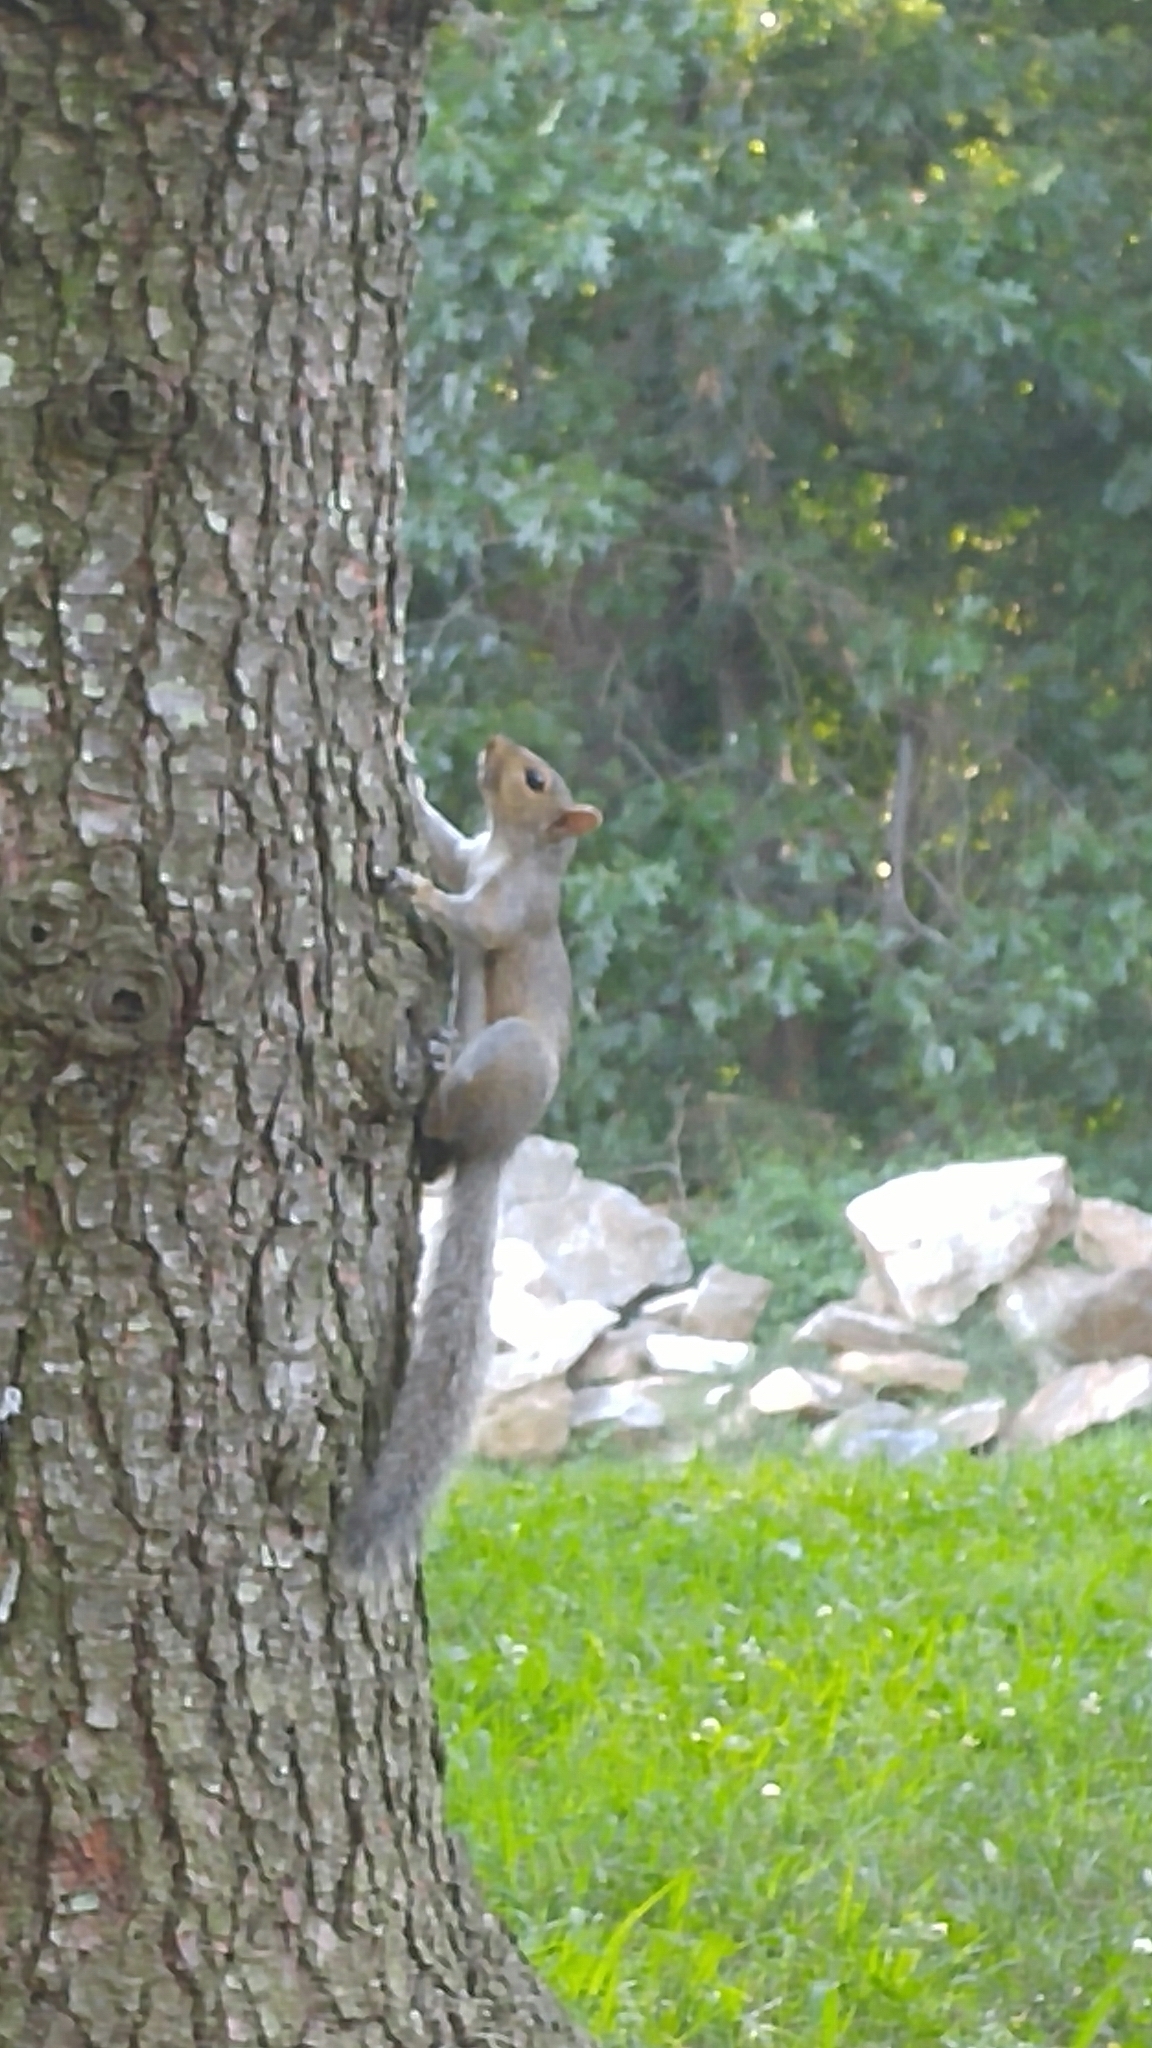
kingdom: Animalia
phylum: Chordata
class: Mammalia
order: Rodentia
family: Sciuridae
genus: Sciurus
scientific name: Sciurus carolinensis
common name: Eastern gray squirrel
